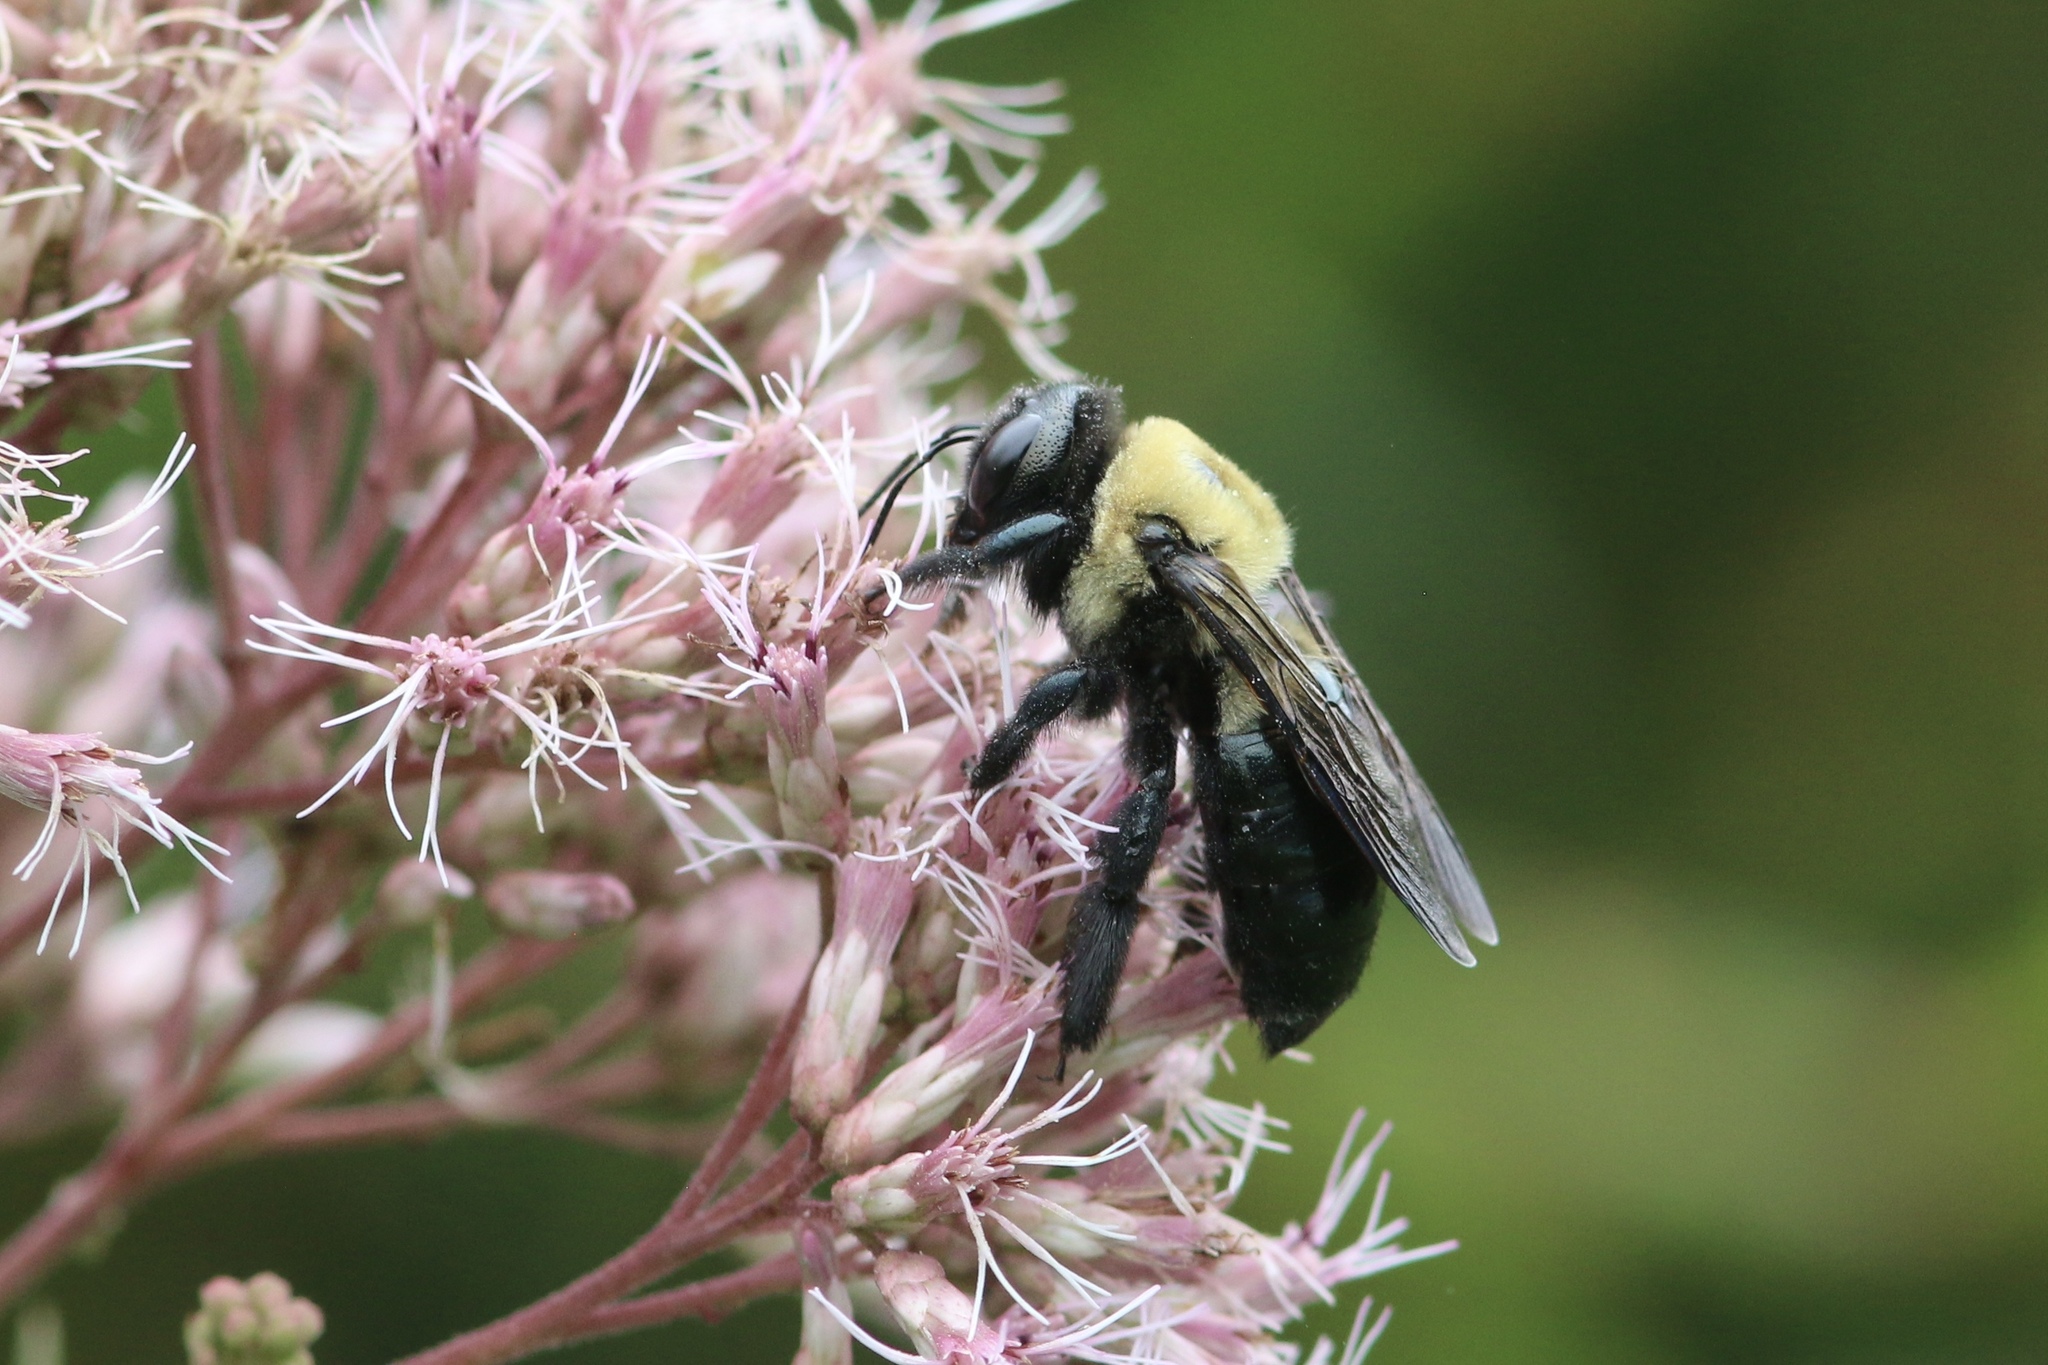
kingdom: Animalia
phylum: Arthropoda
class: Insecta
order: Hymenoptera
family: Apidae
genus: Xylocopa
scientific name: Xylocopa virginica
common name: Carpenter bee
